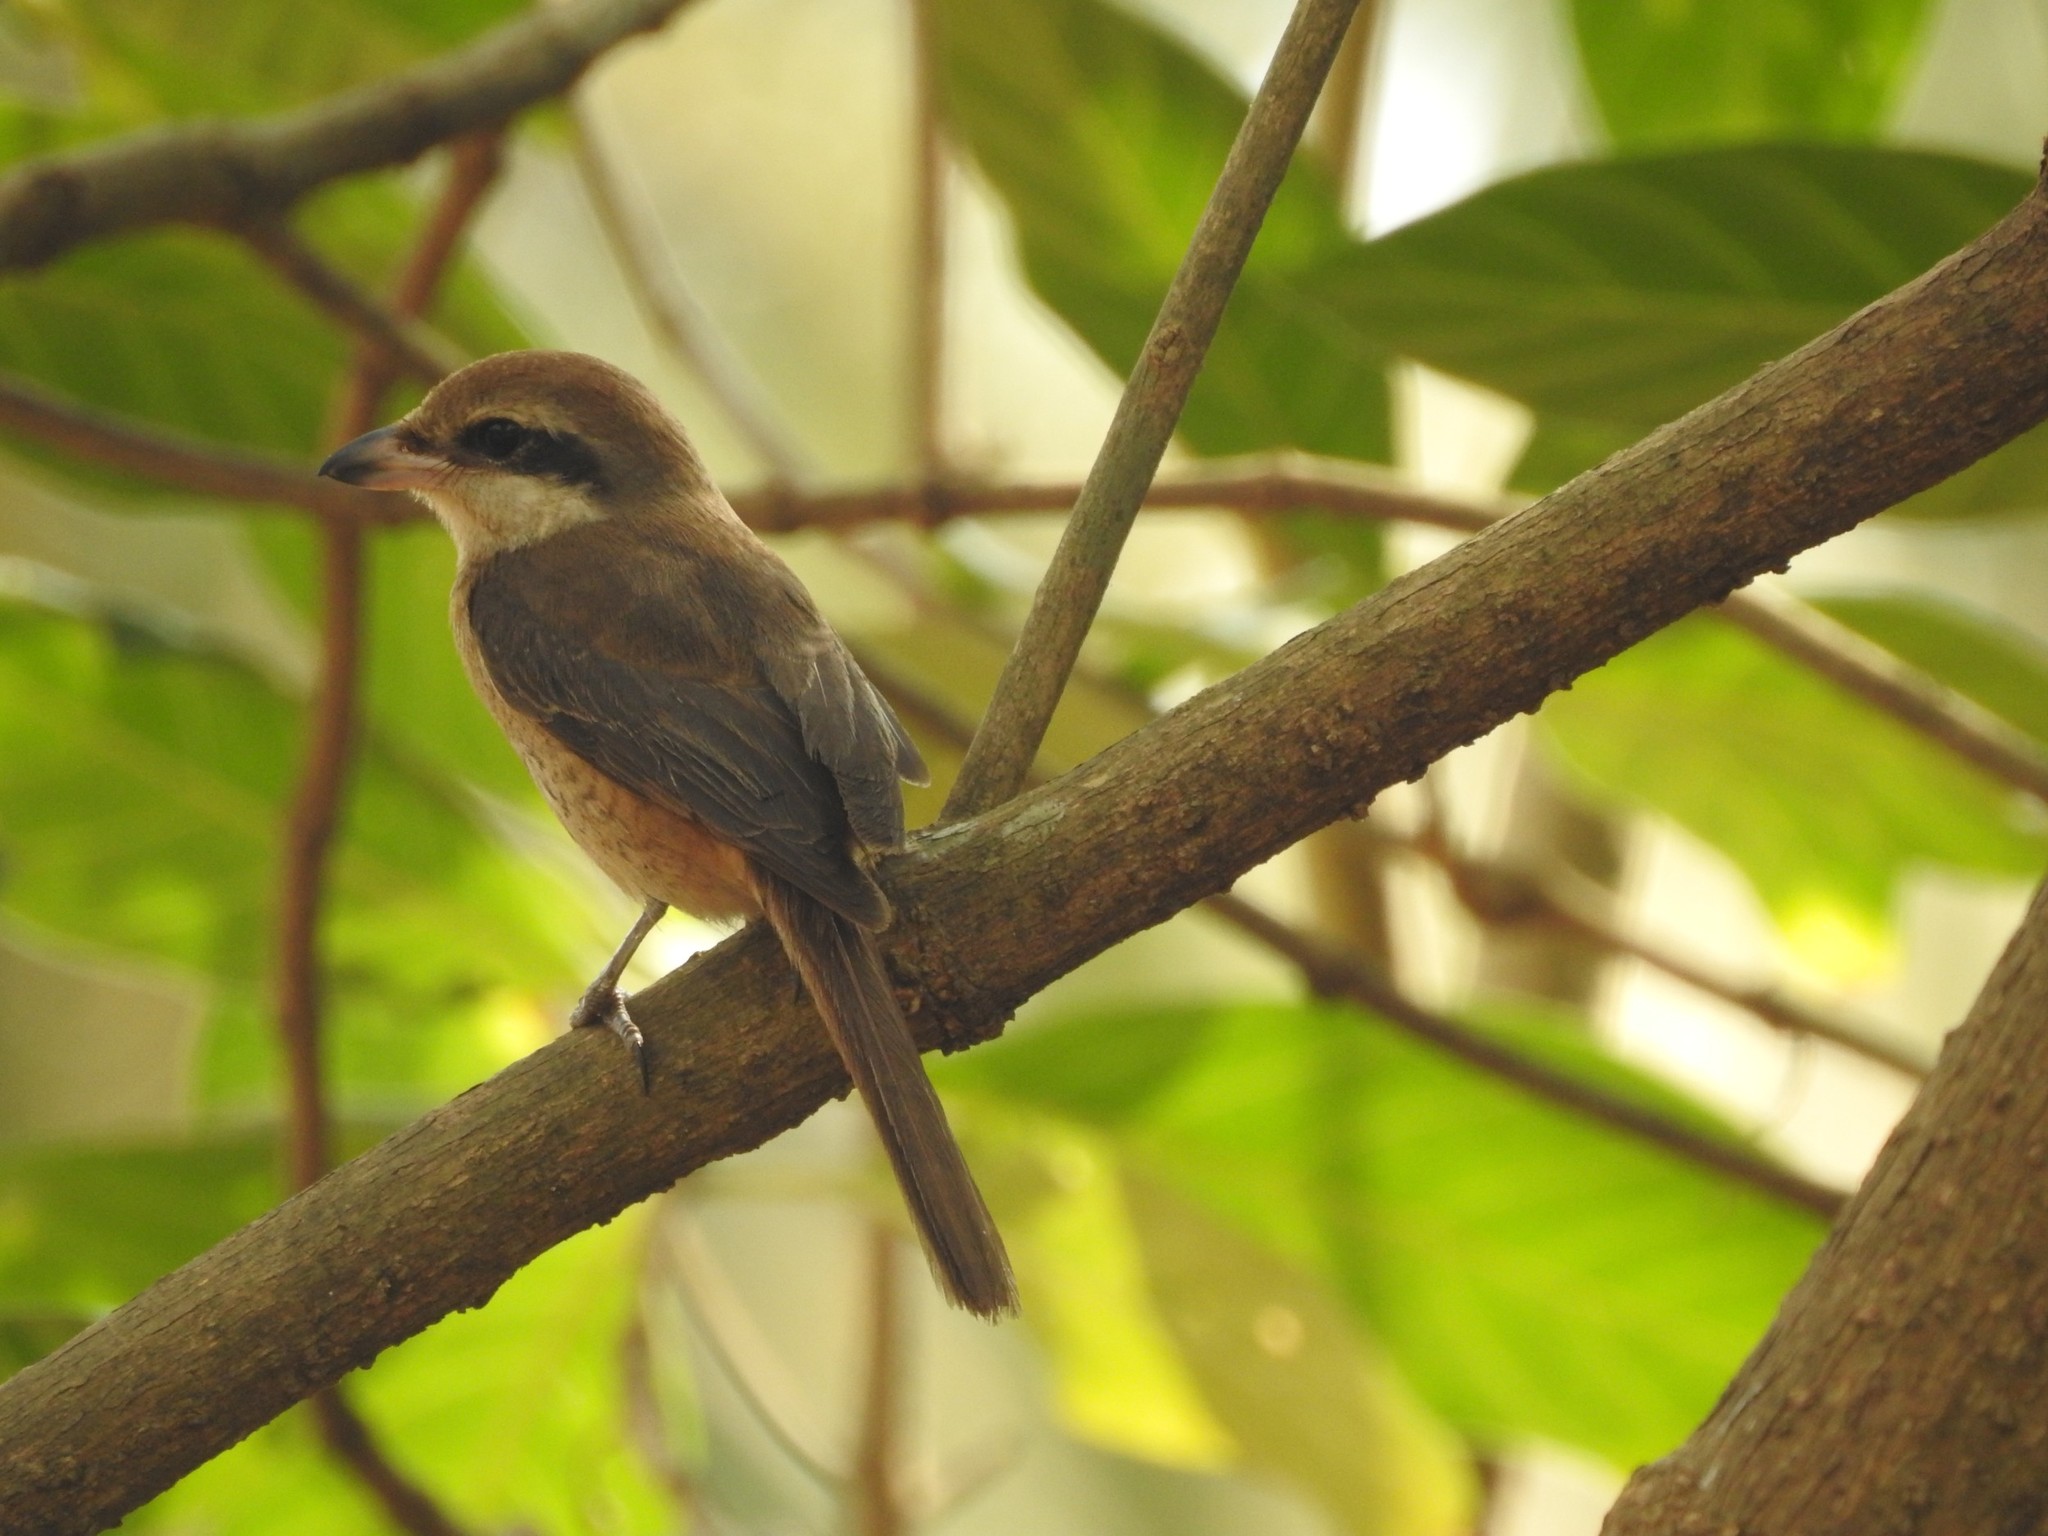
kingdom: Animalia
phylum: Chordata
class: Aves
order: Passeriformes
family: Laniidae
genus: Lanius
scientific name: Lanius cristatus
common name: Brown shrike
